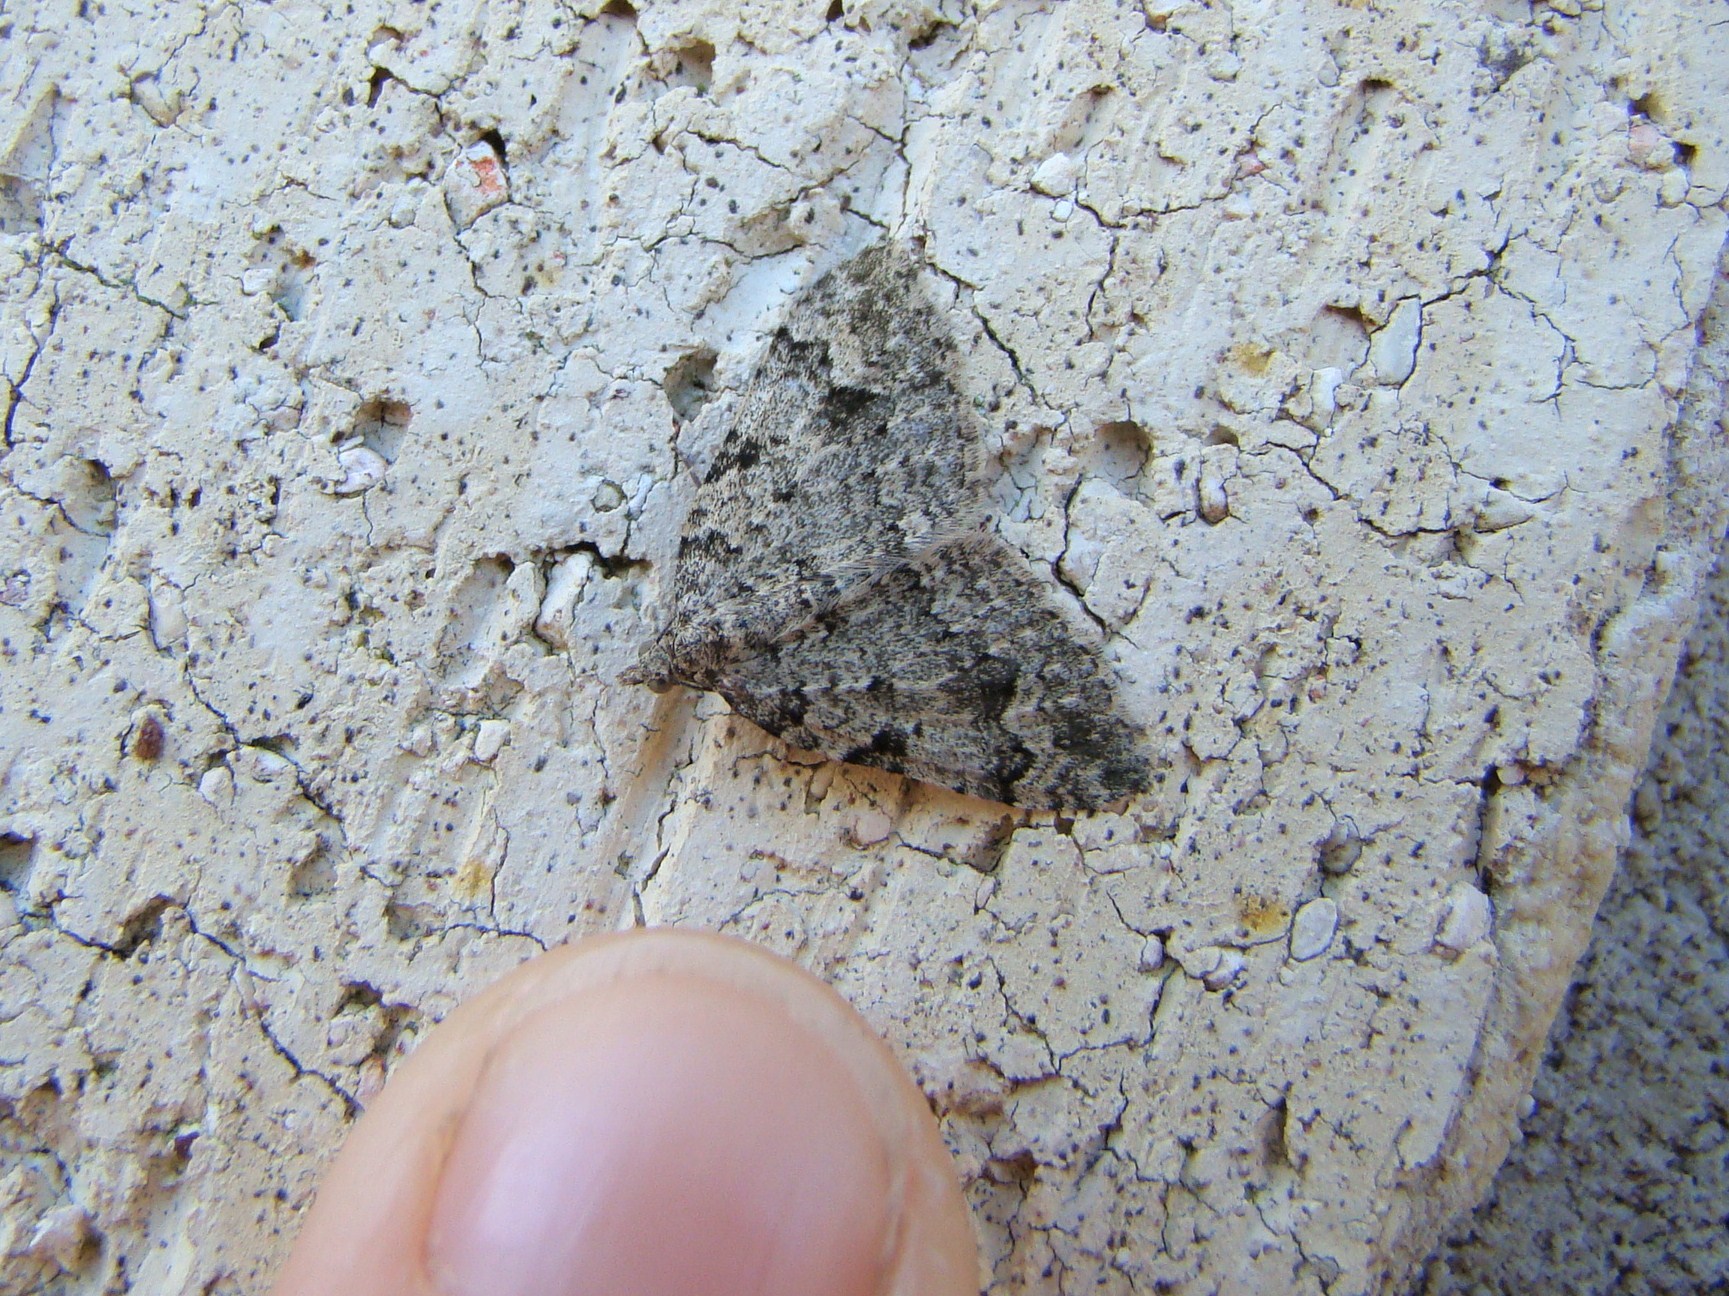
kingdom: Animalia
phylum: Arthropoda
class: Insecta
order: Lepidoptera
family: Geometridae
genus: Helastia
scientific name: Helastia cinerearia
